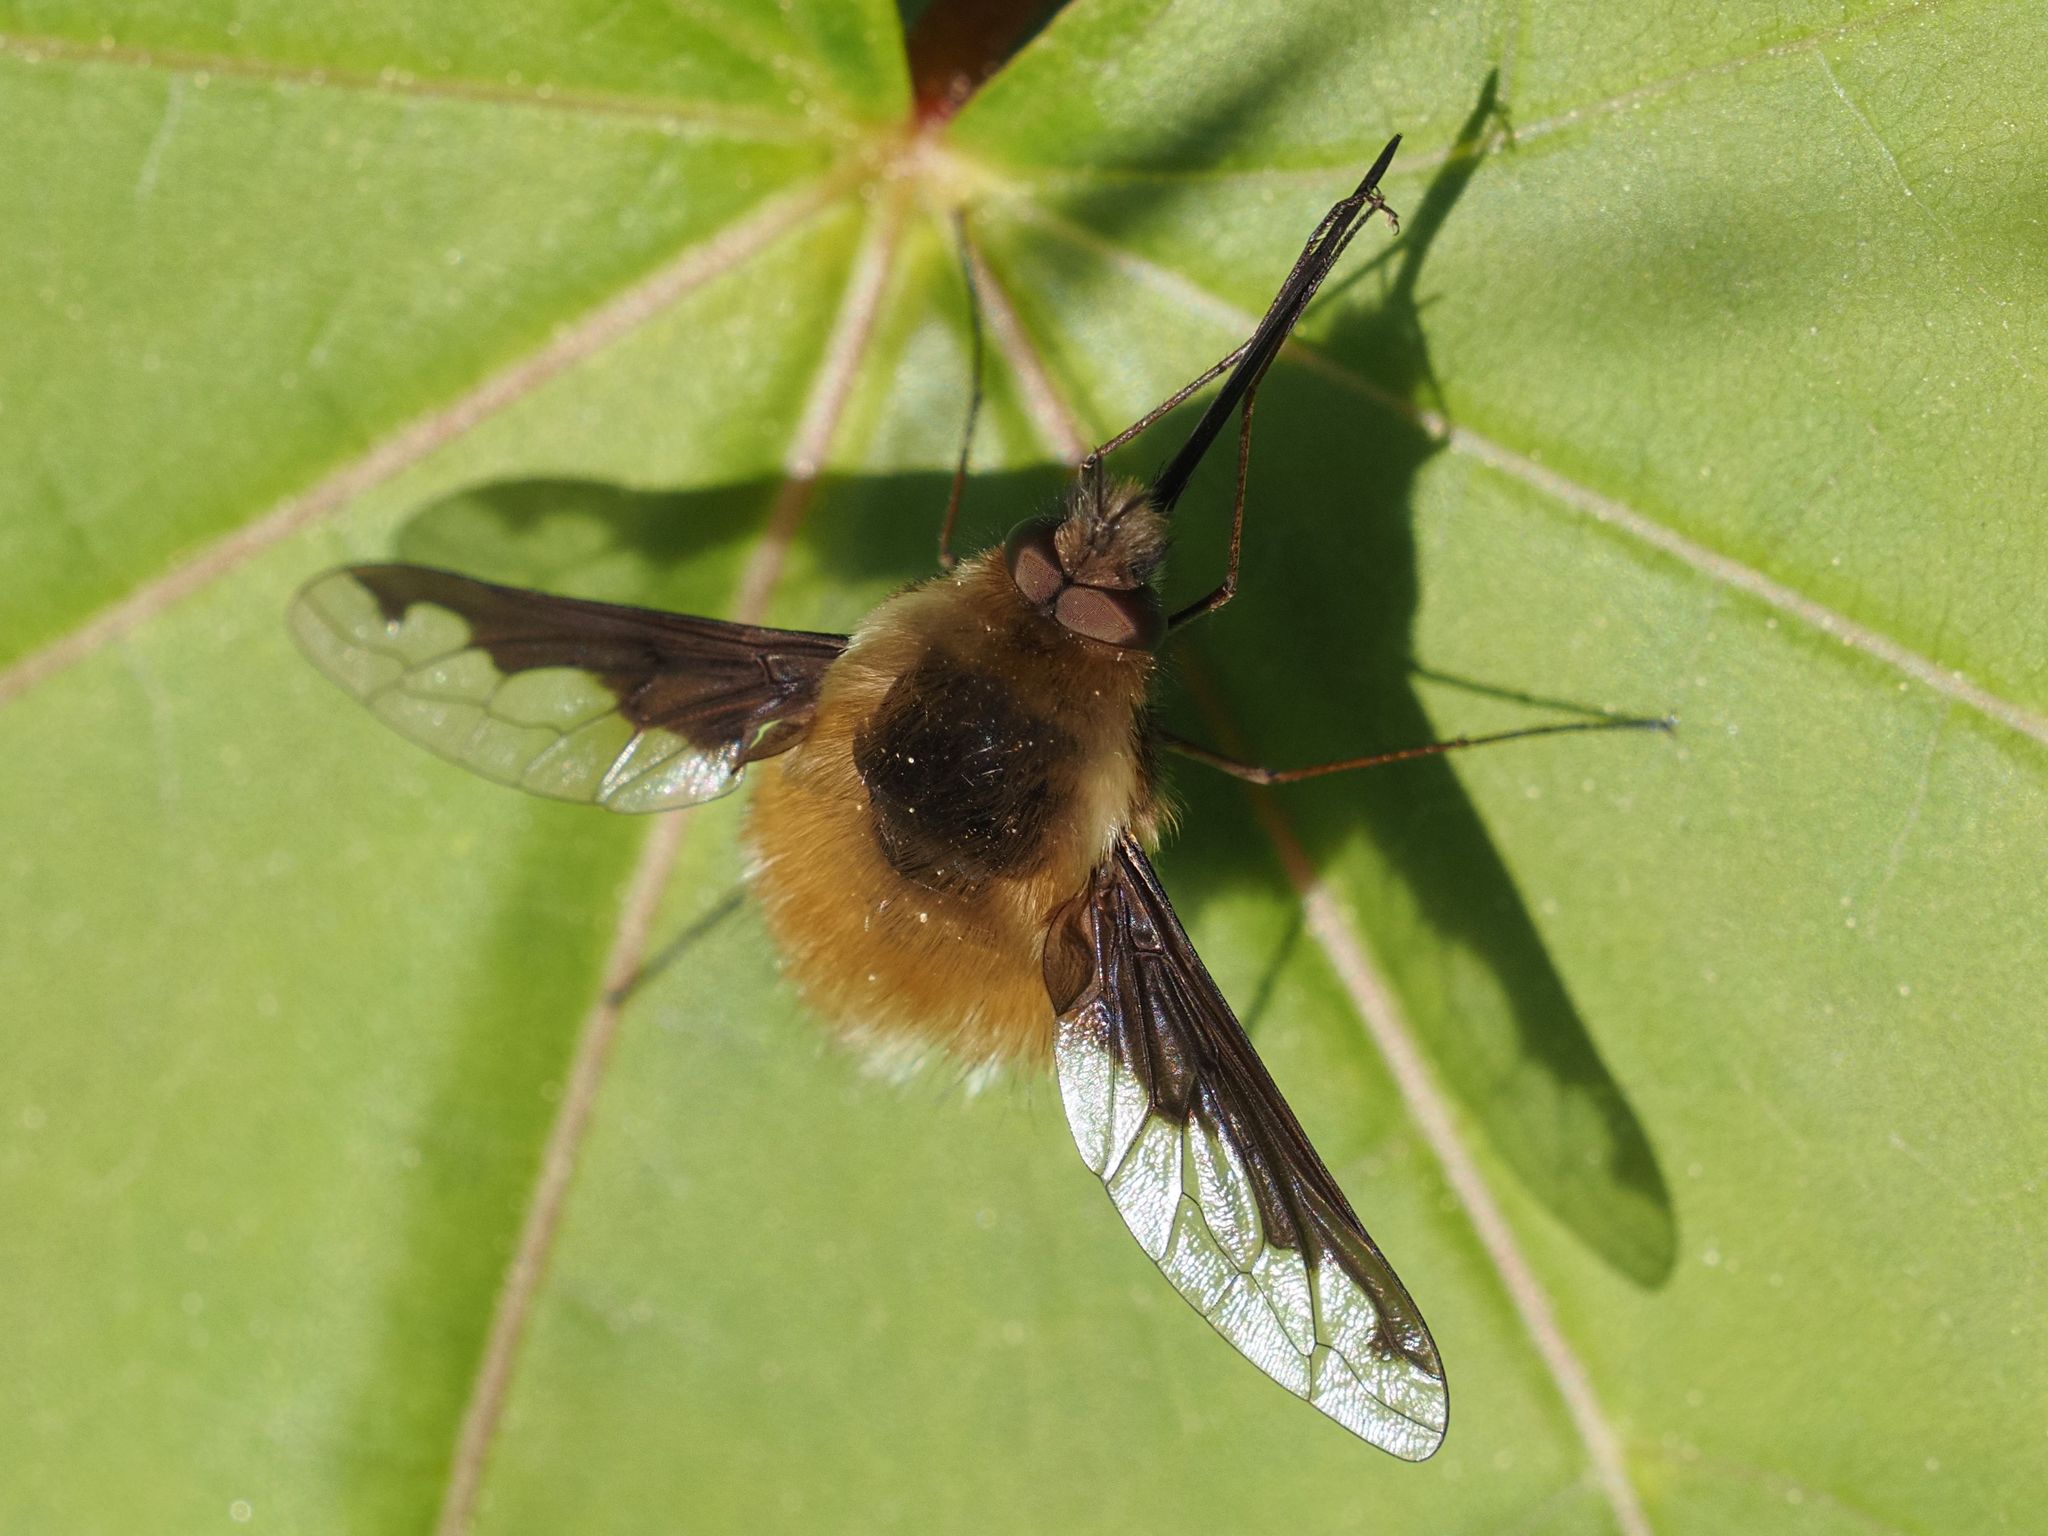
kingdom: Animalia
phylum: Arthropoda
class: Insecta
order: Diptera
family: Bombyliidae
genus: Bombylius
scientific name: Bombylius major
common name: Bee fly
